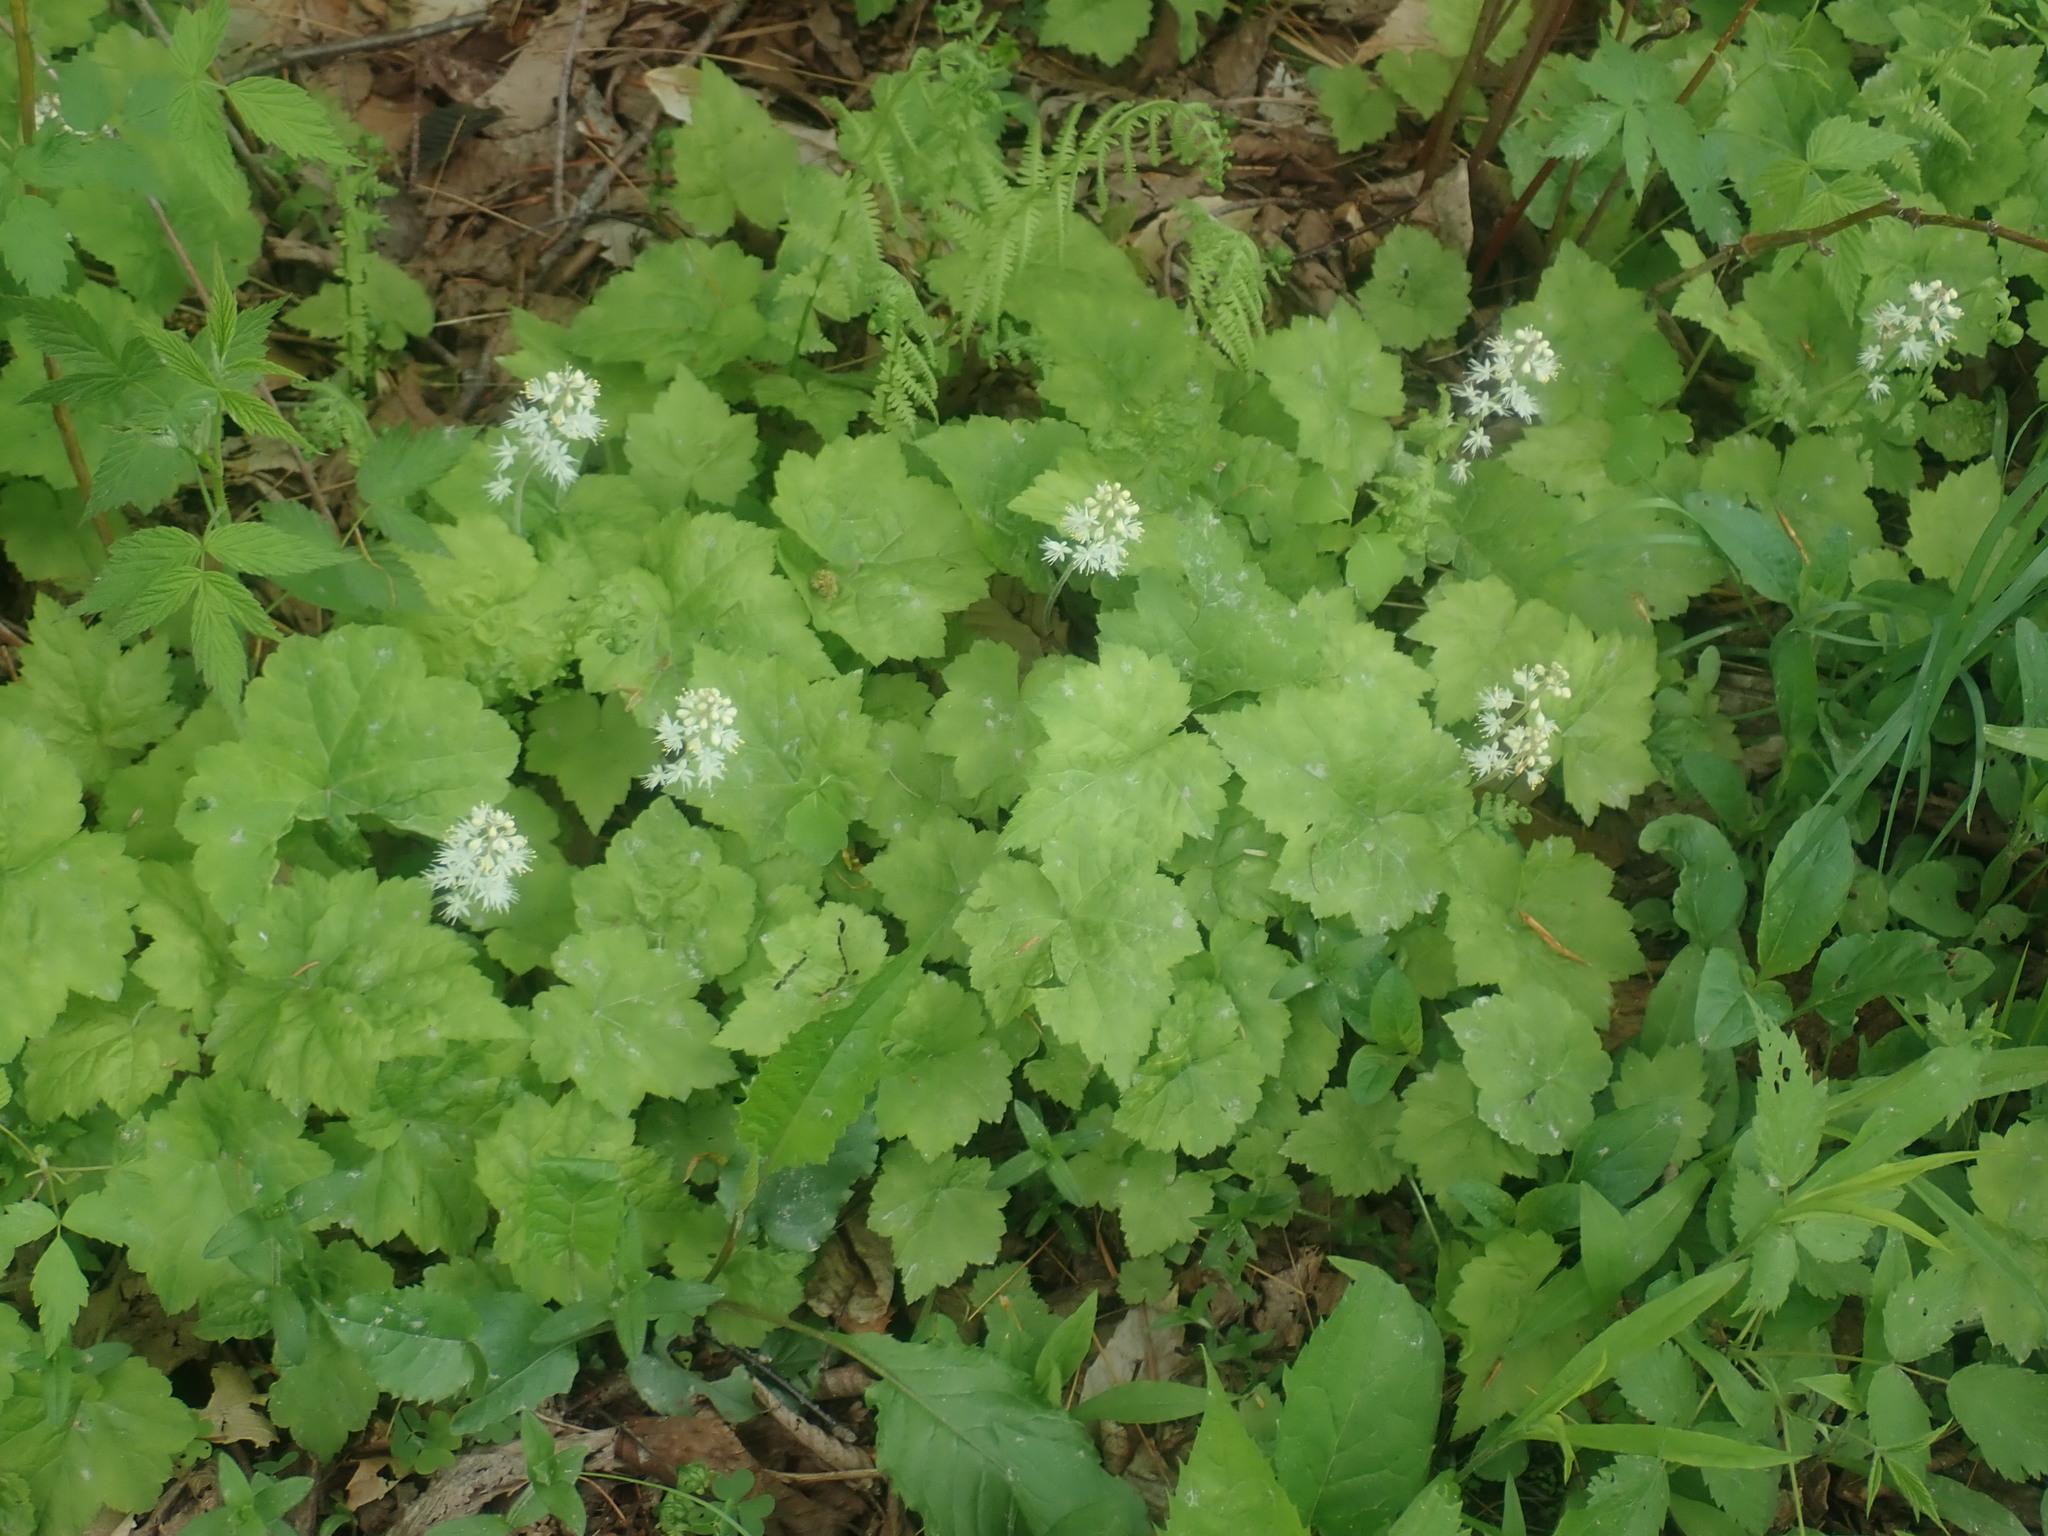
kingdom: Plantae
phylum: Tracheophyta
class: Magnoliopsida
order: Saxifragales
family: Saxifragaceae
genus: Tiarella
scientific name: Tiarella stolonifera
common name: Stoloniferous foamflower
